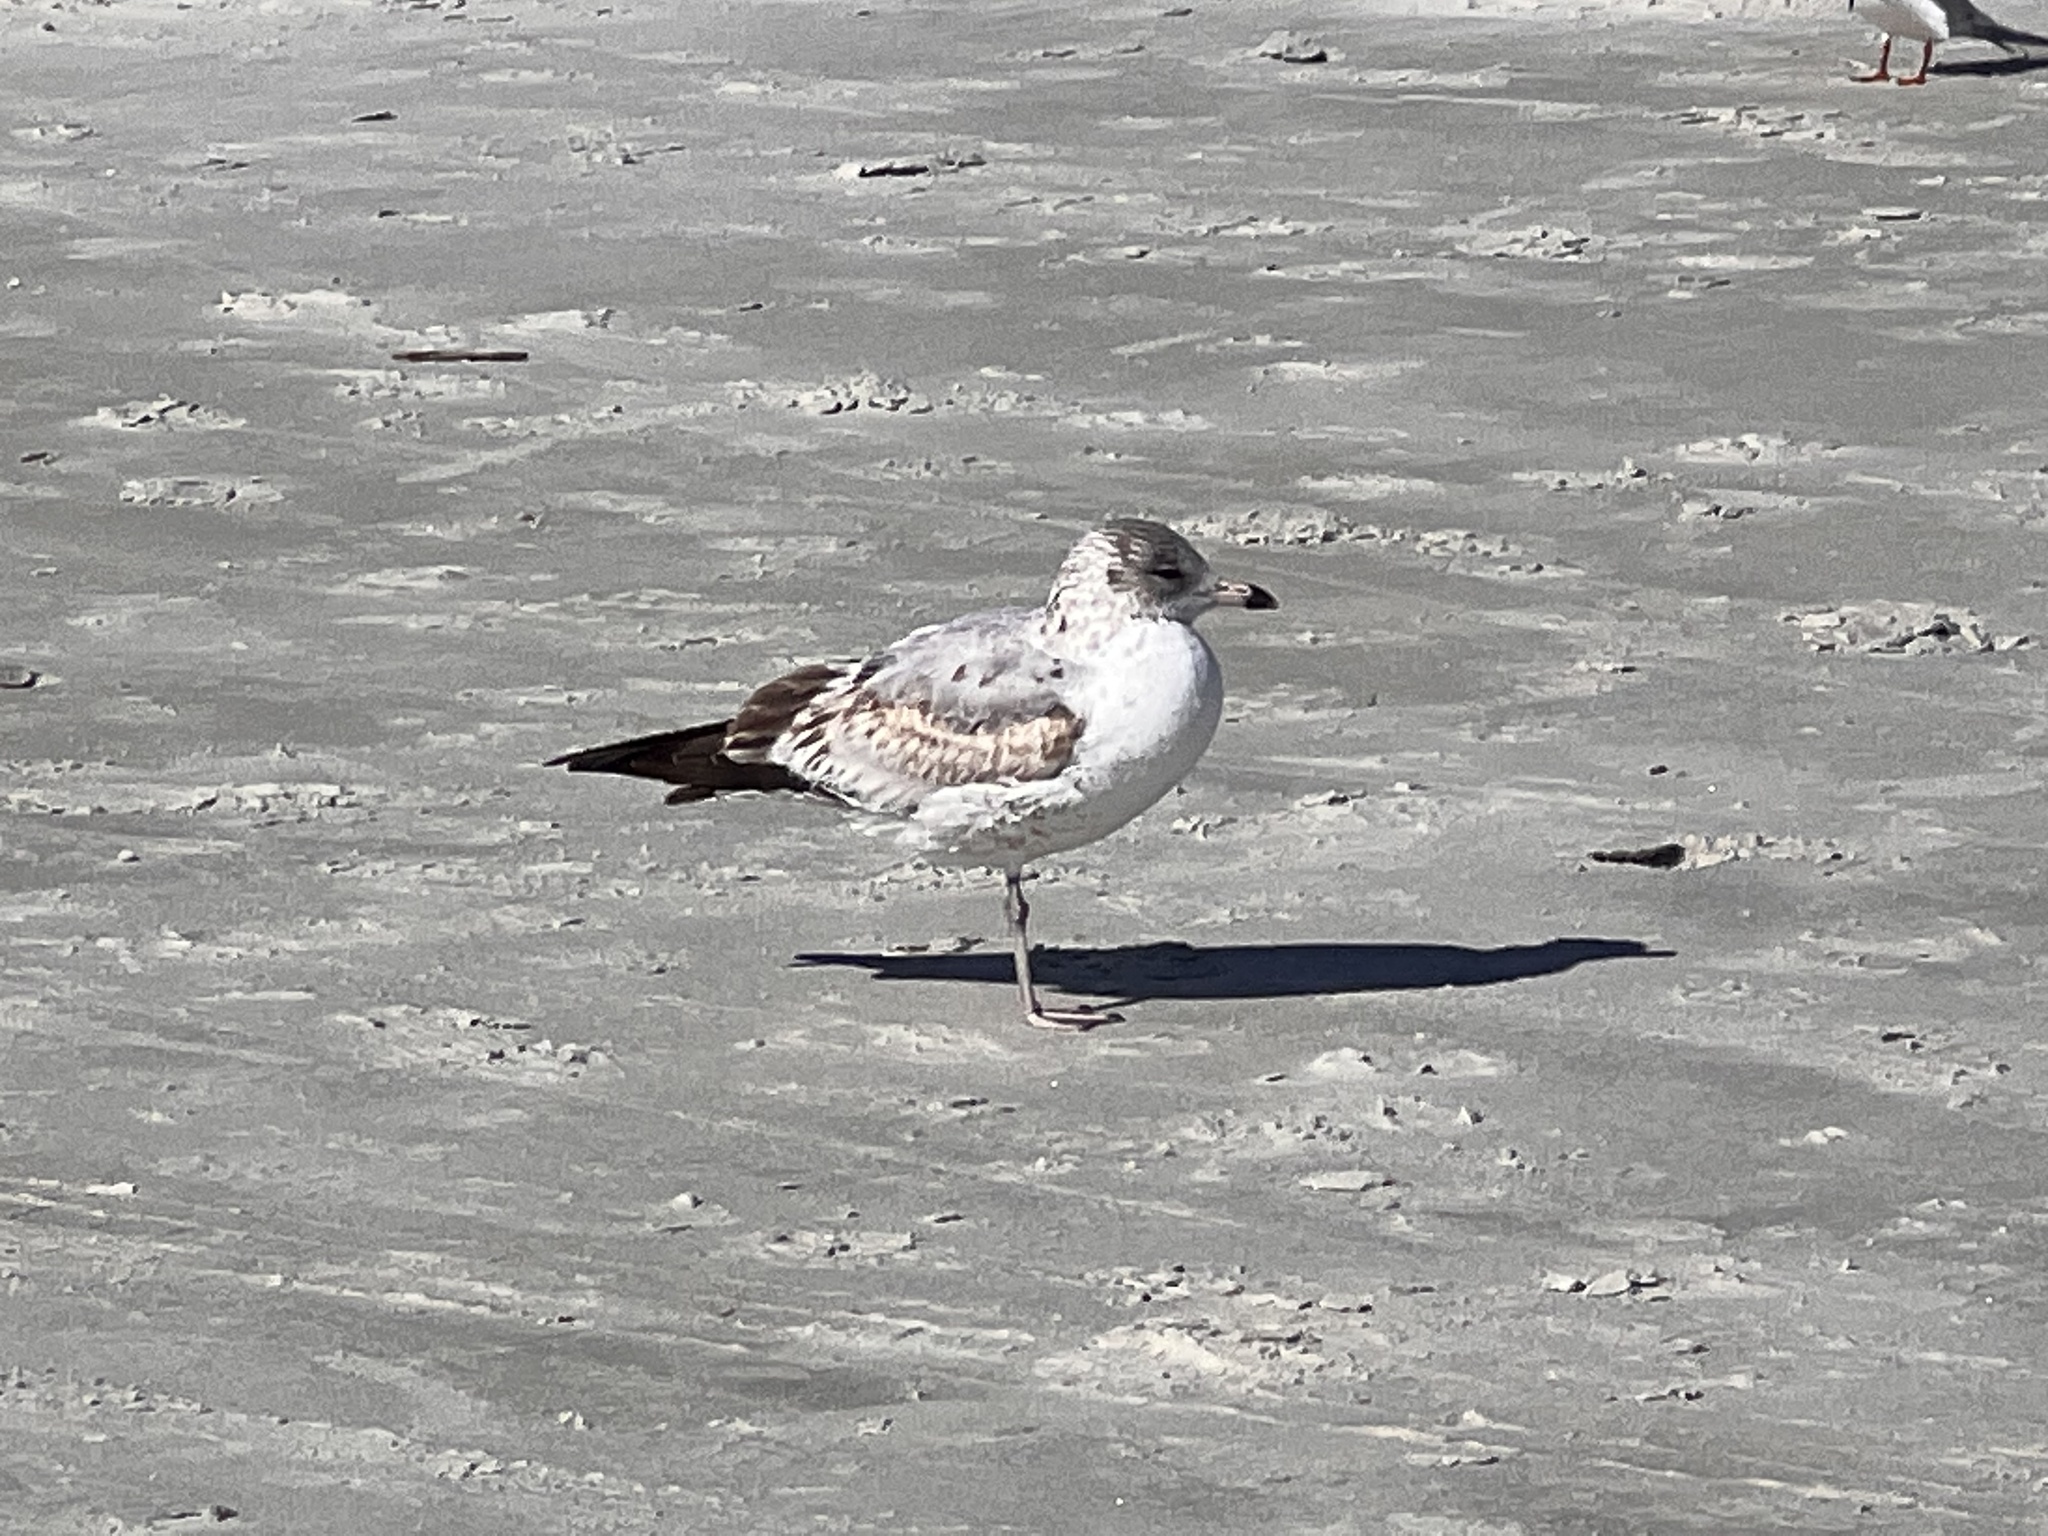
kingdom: Animalia
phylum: Chordata
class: Aves
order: Charadriiformes
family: Laridae
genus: Larus
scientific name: Larus delawarensis
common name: Ring-billed gull
